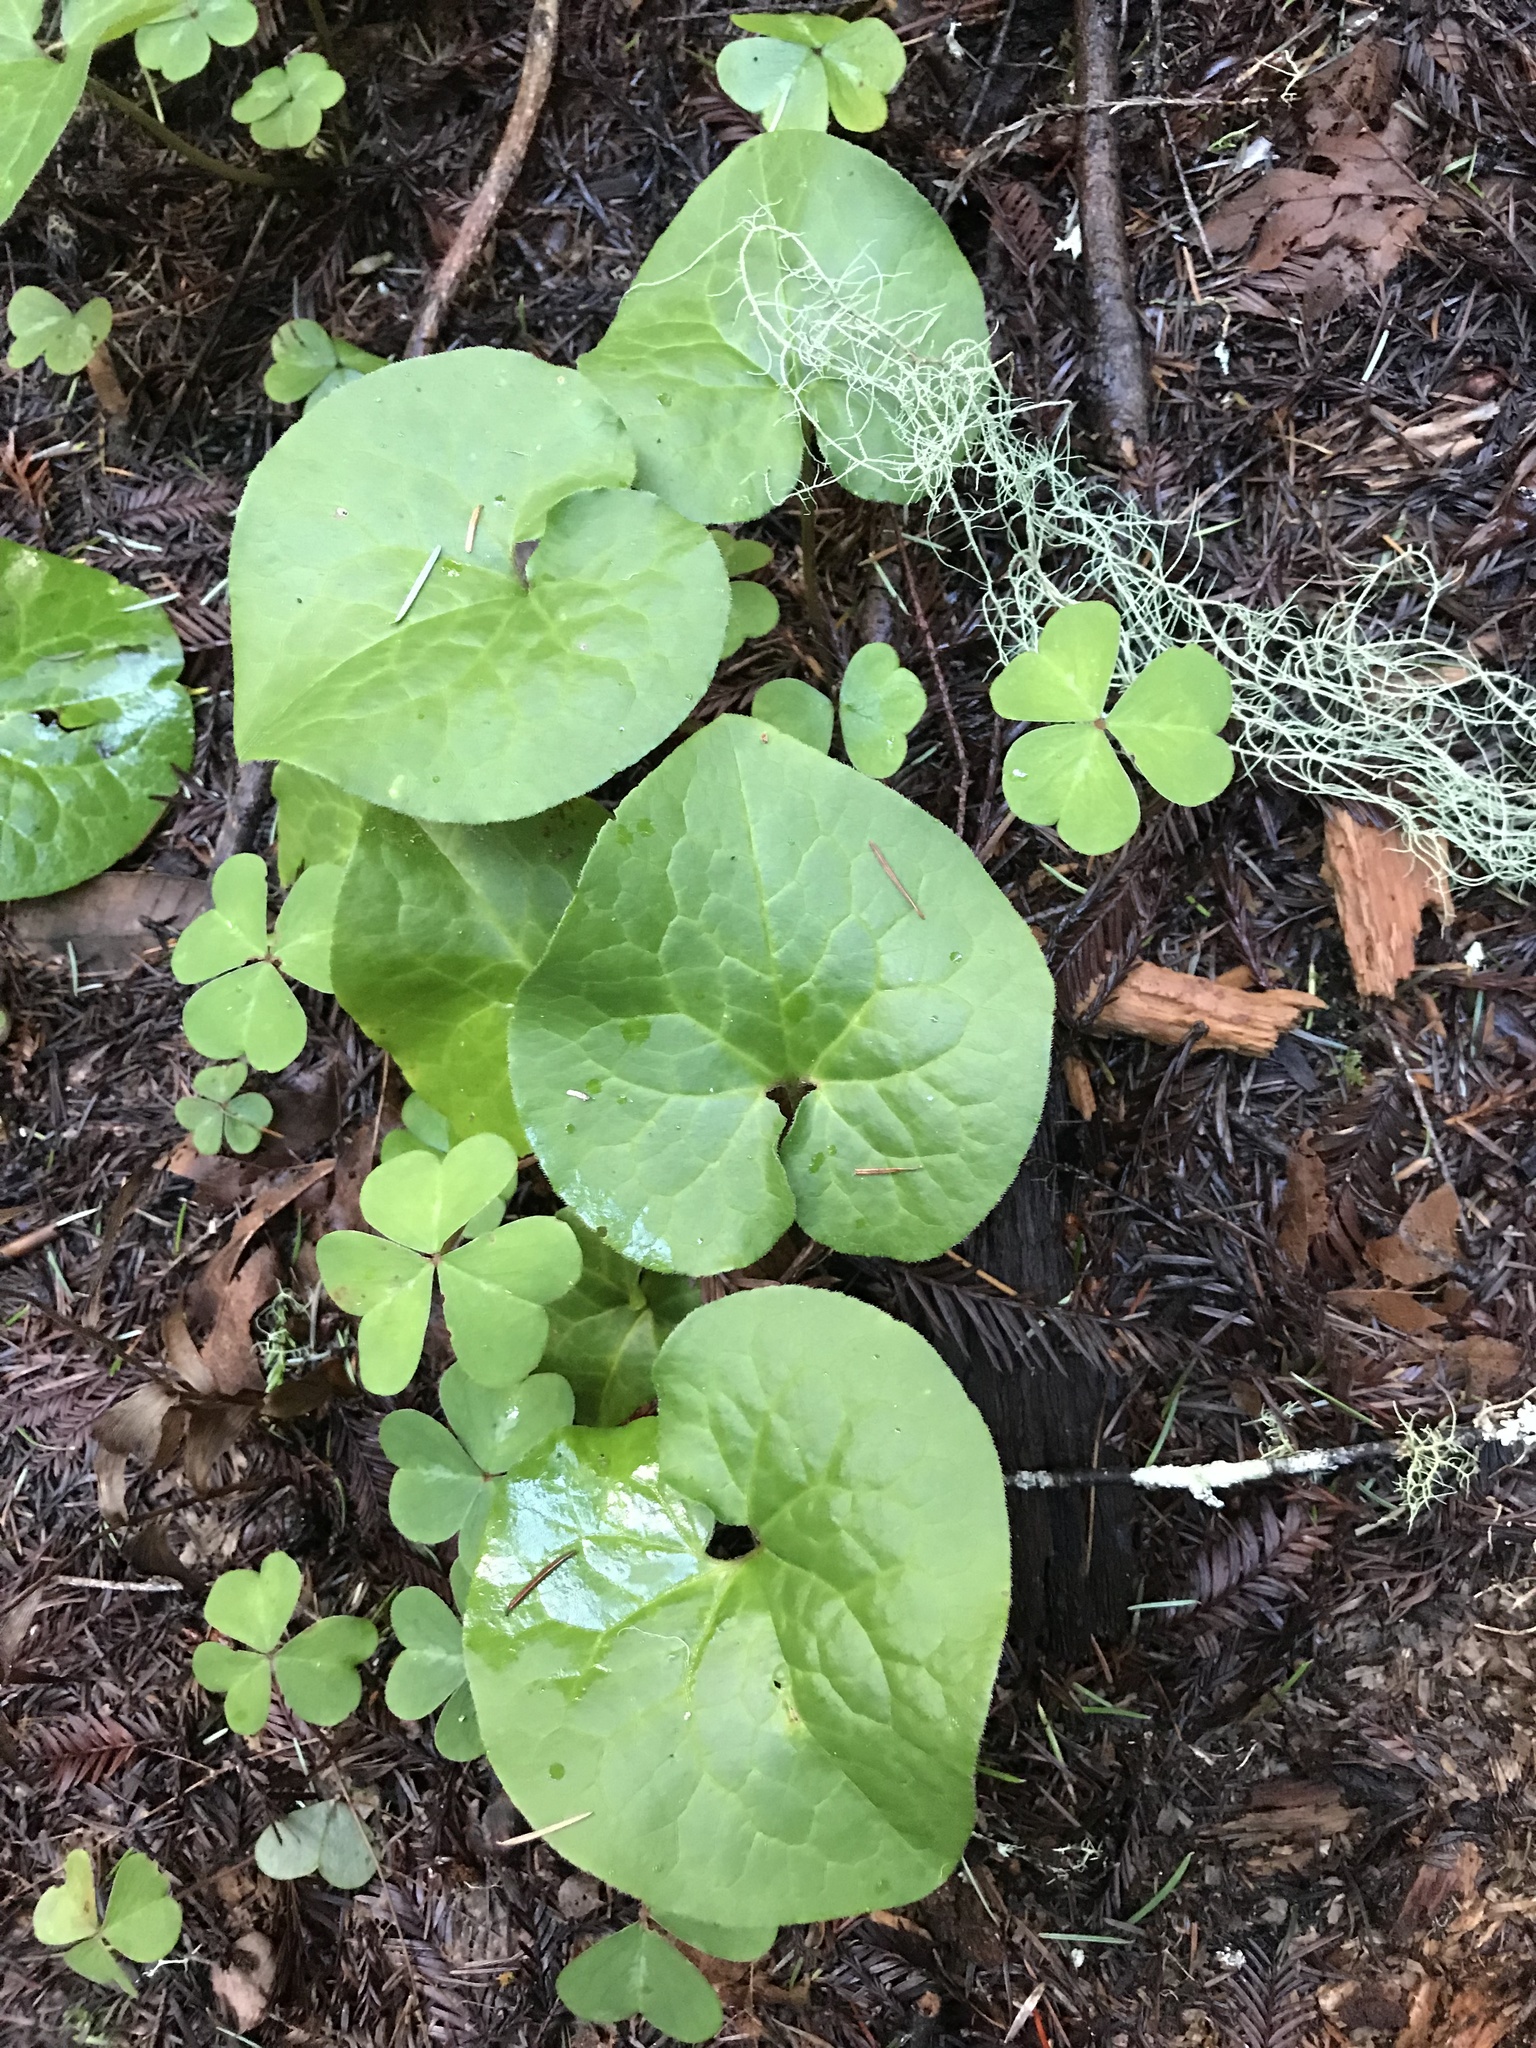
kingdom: Plantae
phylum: Tracheophyta
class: Magnoliopsida
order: Piperales
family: Aristolochiaceae
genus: Asarum
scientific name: Asarum caudatum
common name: Wild ginger
